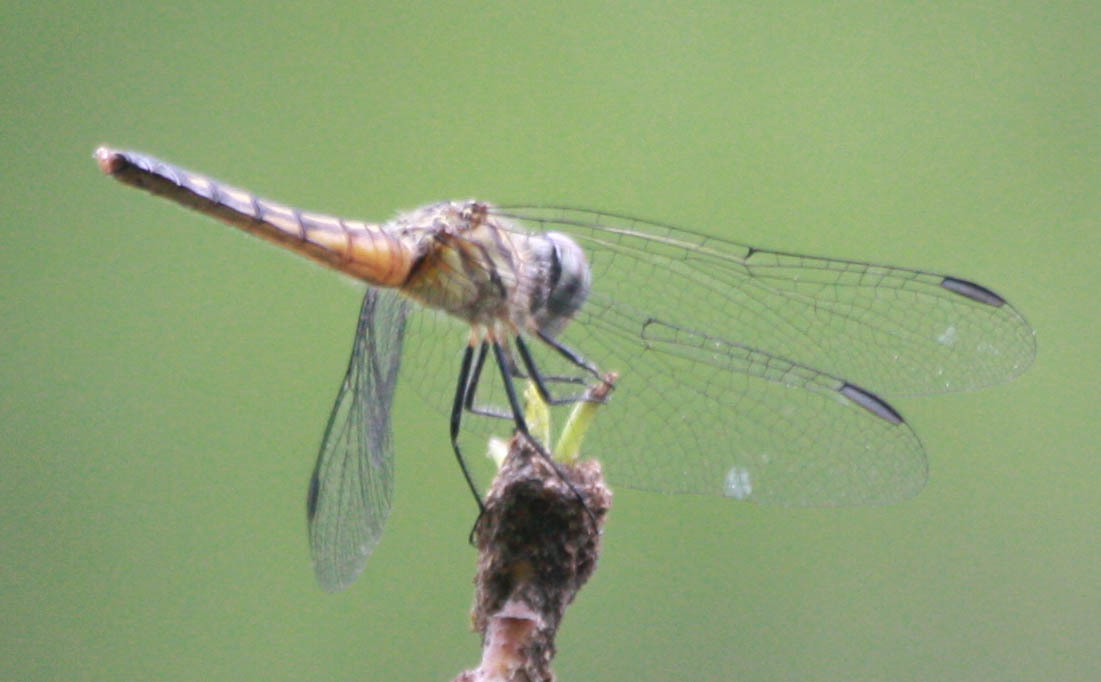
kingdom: Animalia
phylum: Arthropoda
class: Insecta
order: Odonata
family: Libellulidae
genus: Pachydiplax
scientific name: Pachydiplax longipennis
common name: Blue dasher
